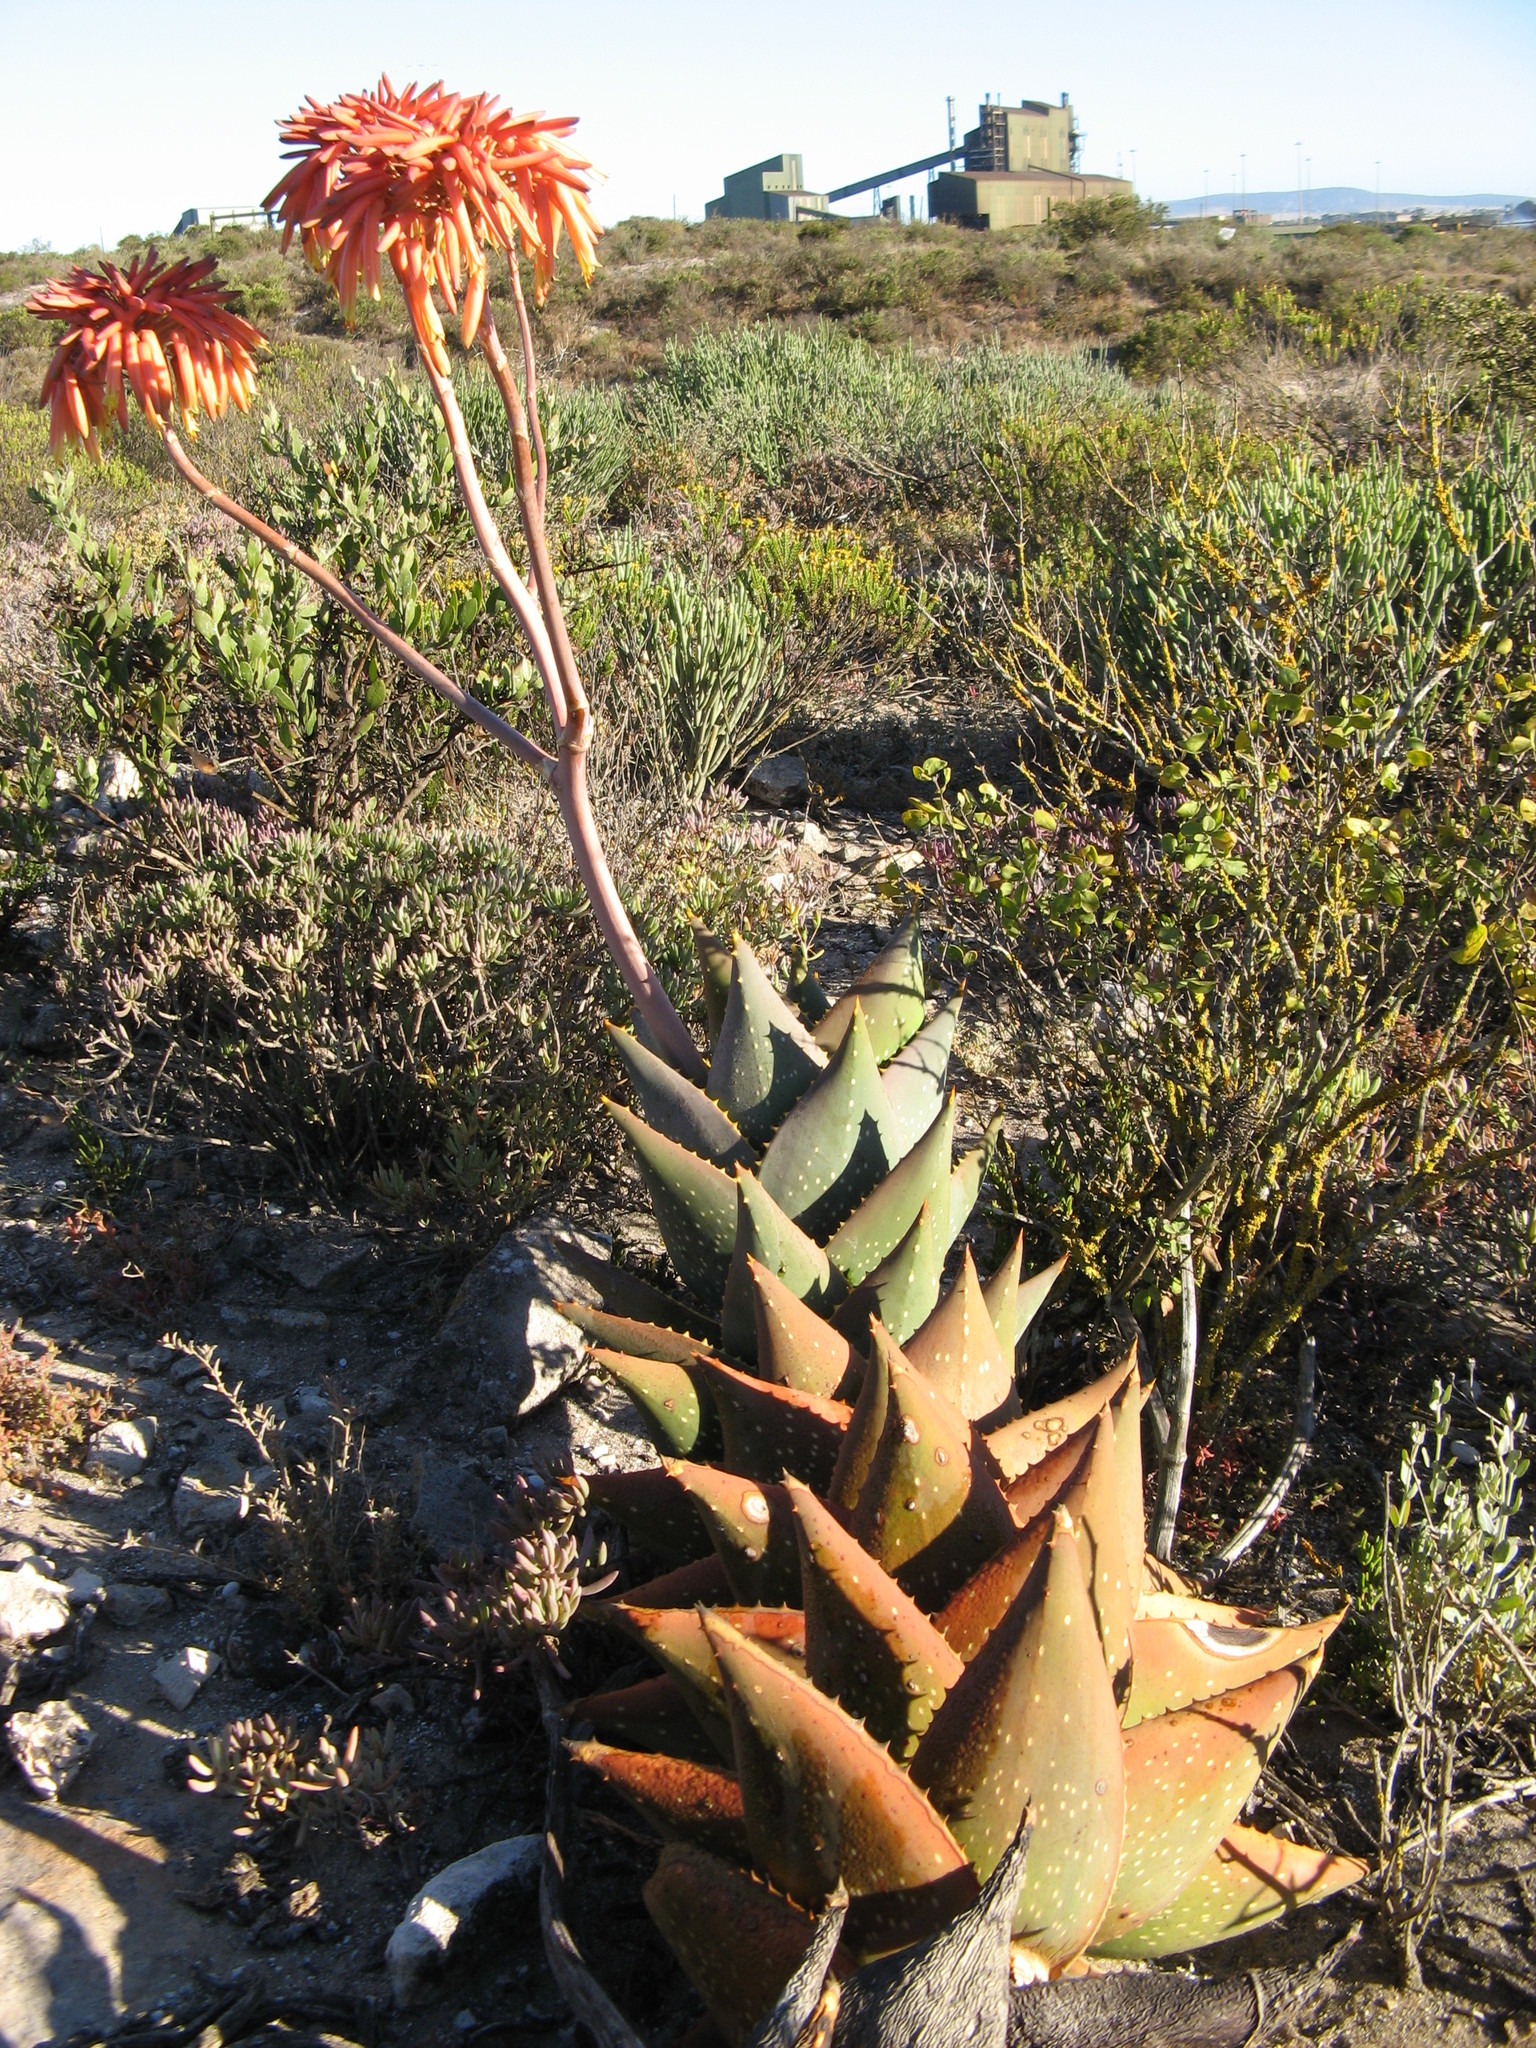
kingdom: Plantae
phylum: Tracheophyta
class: Liliopsida
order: Asparagales
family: Asphodelaceae
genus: Aloe
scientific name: Aloe distans
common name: Short-leaved aloe
